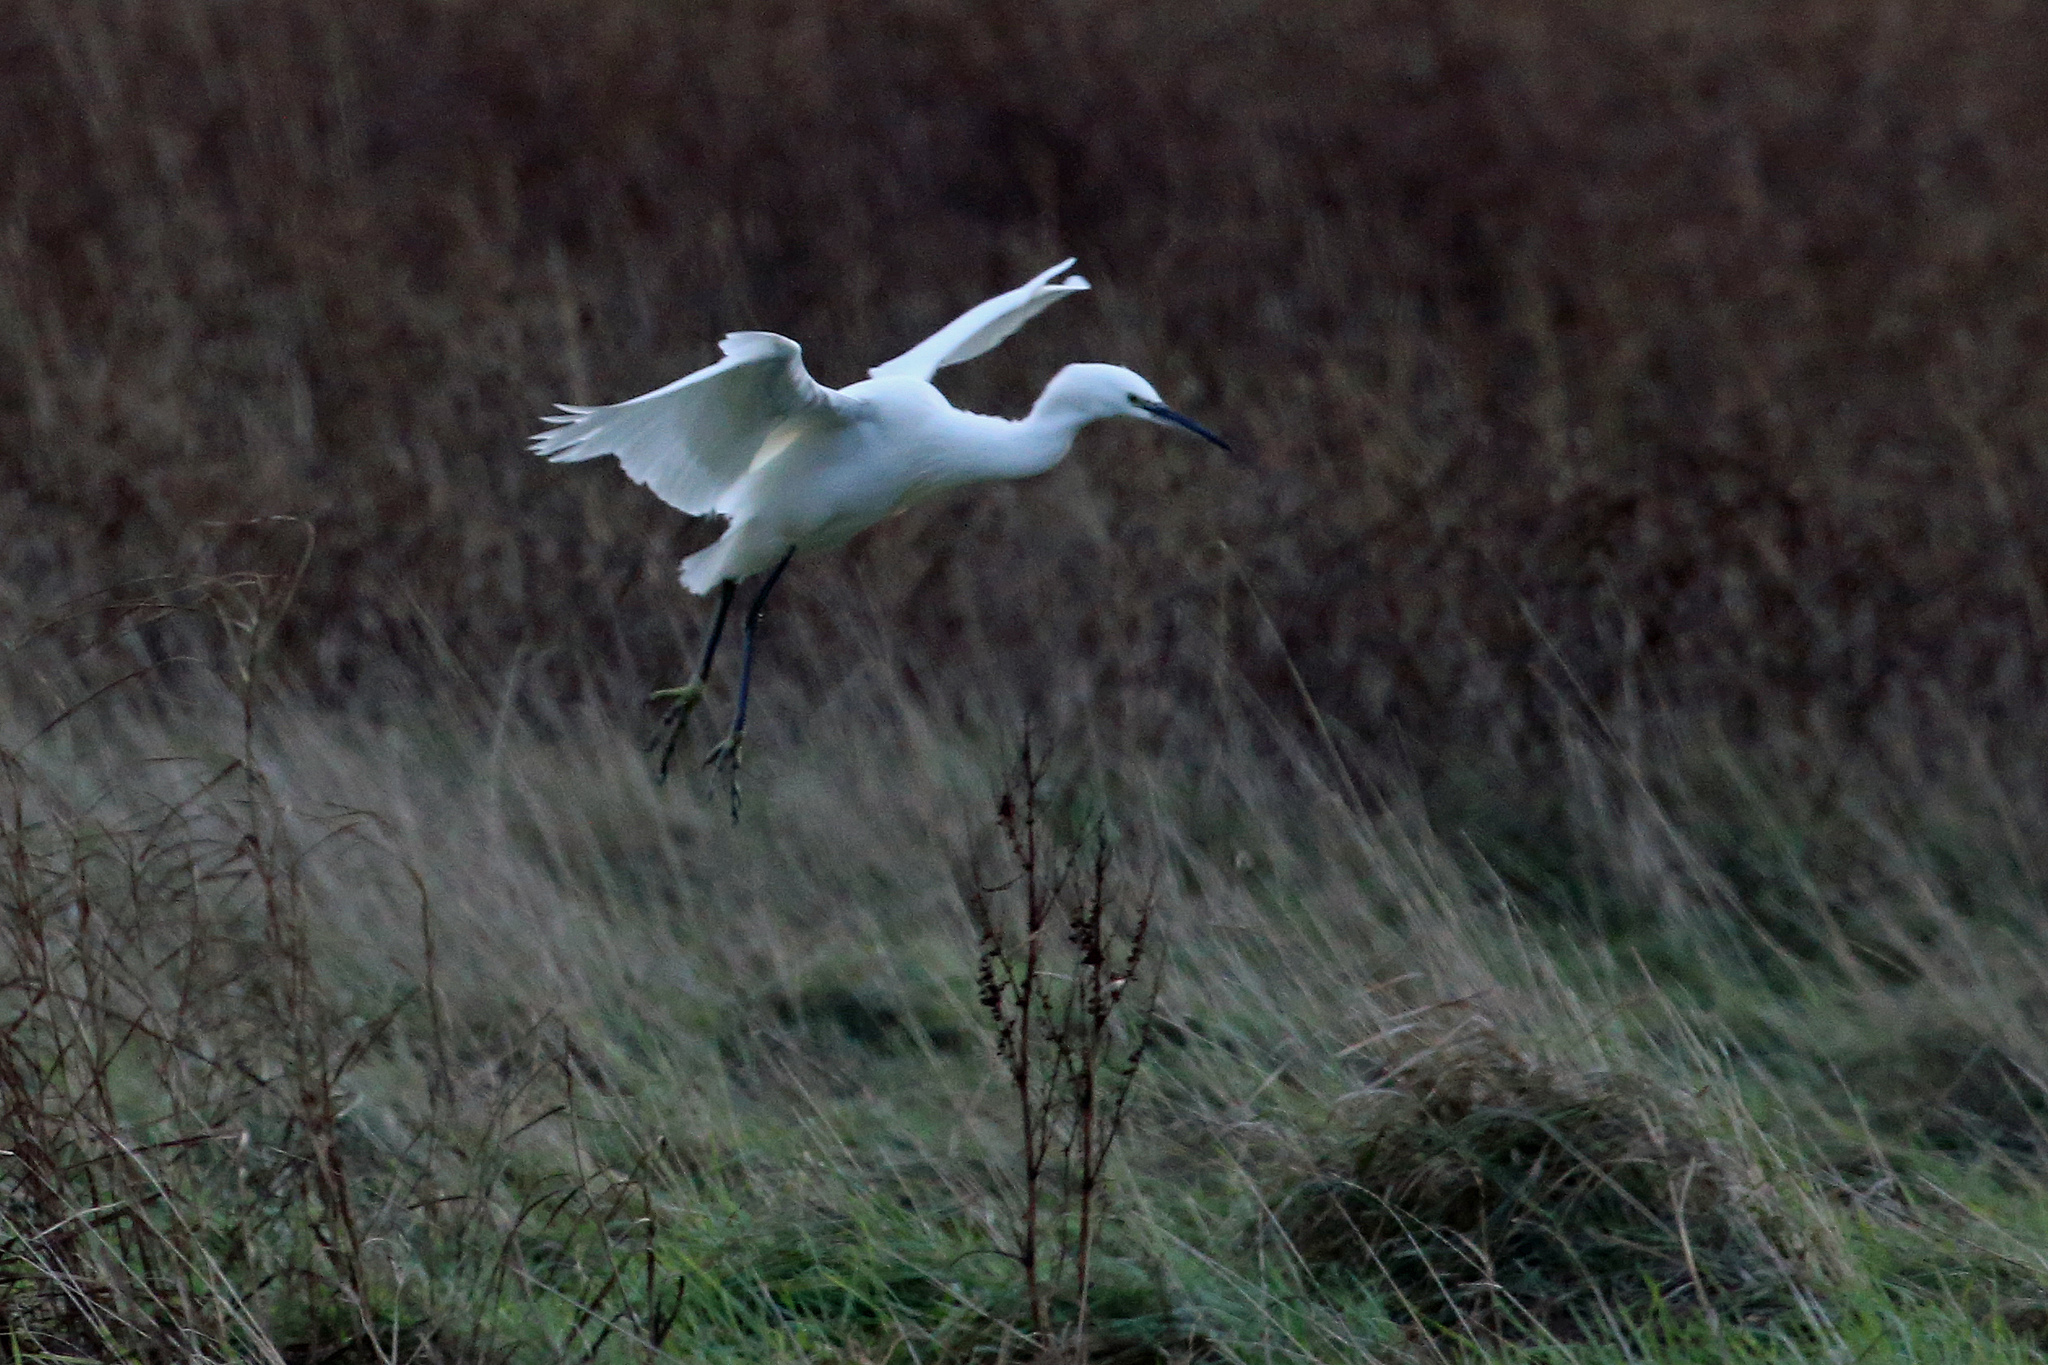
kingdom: Animalia
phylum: Chordata
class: Aves
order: Pelecaniformes
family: Ardeidae
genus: Egretta
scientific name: Egretta garzetta
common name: Little egret
